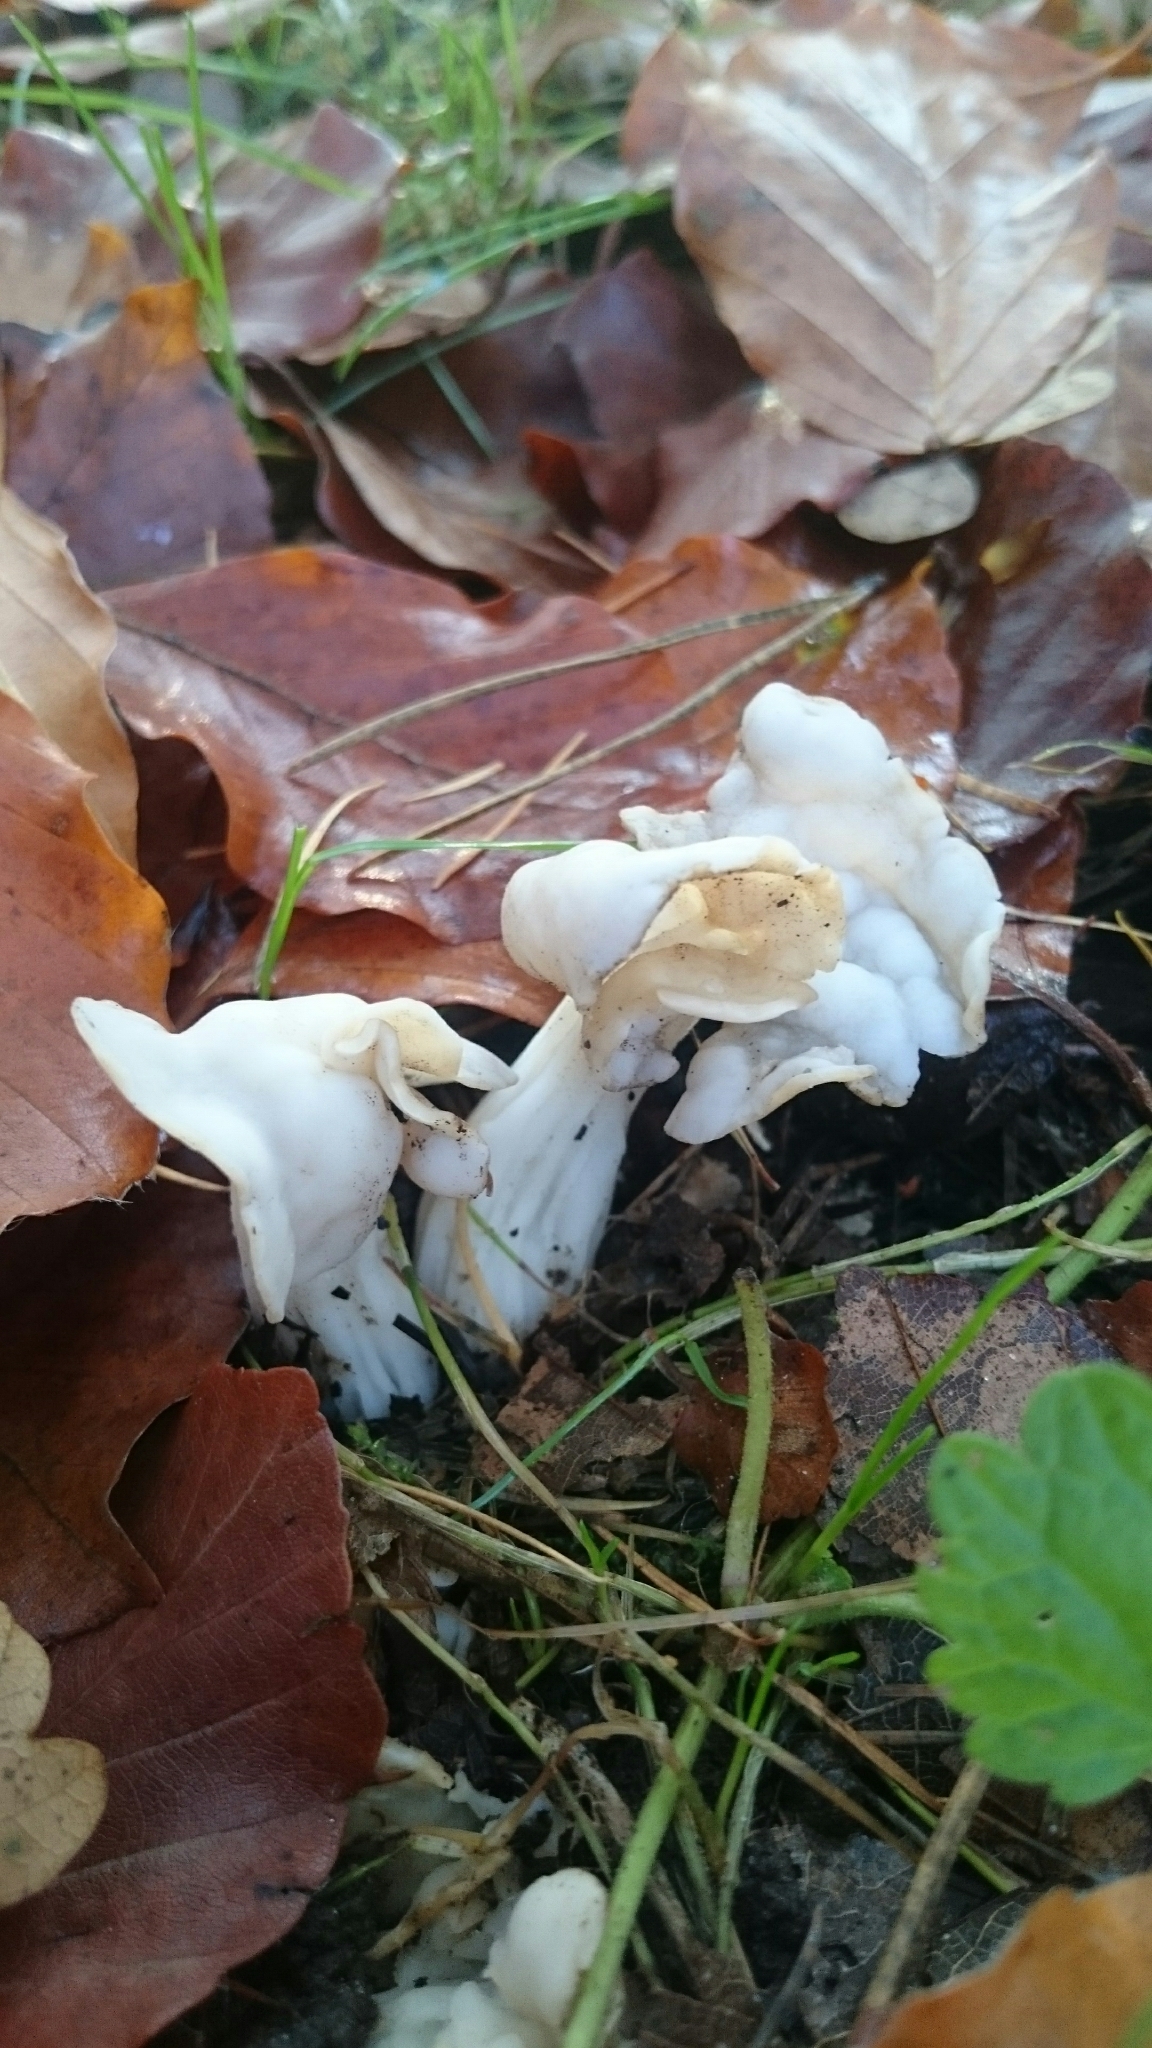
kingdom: Fungi
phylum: Ascomycota
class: Pezizomycetes
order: Pezizales
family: Helvellaceae
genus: Helvella
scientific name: Helvella crispa
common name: White saddle
